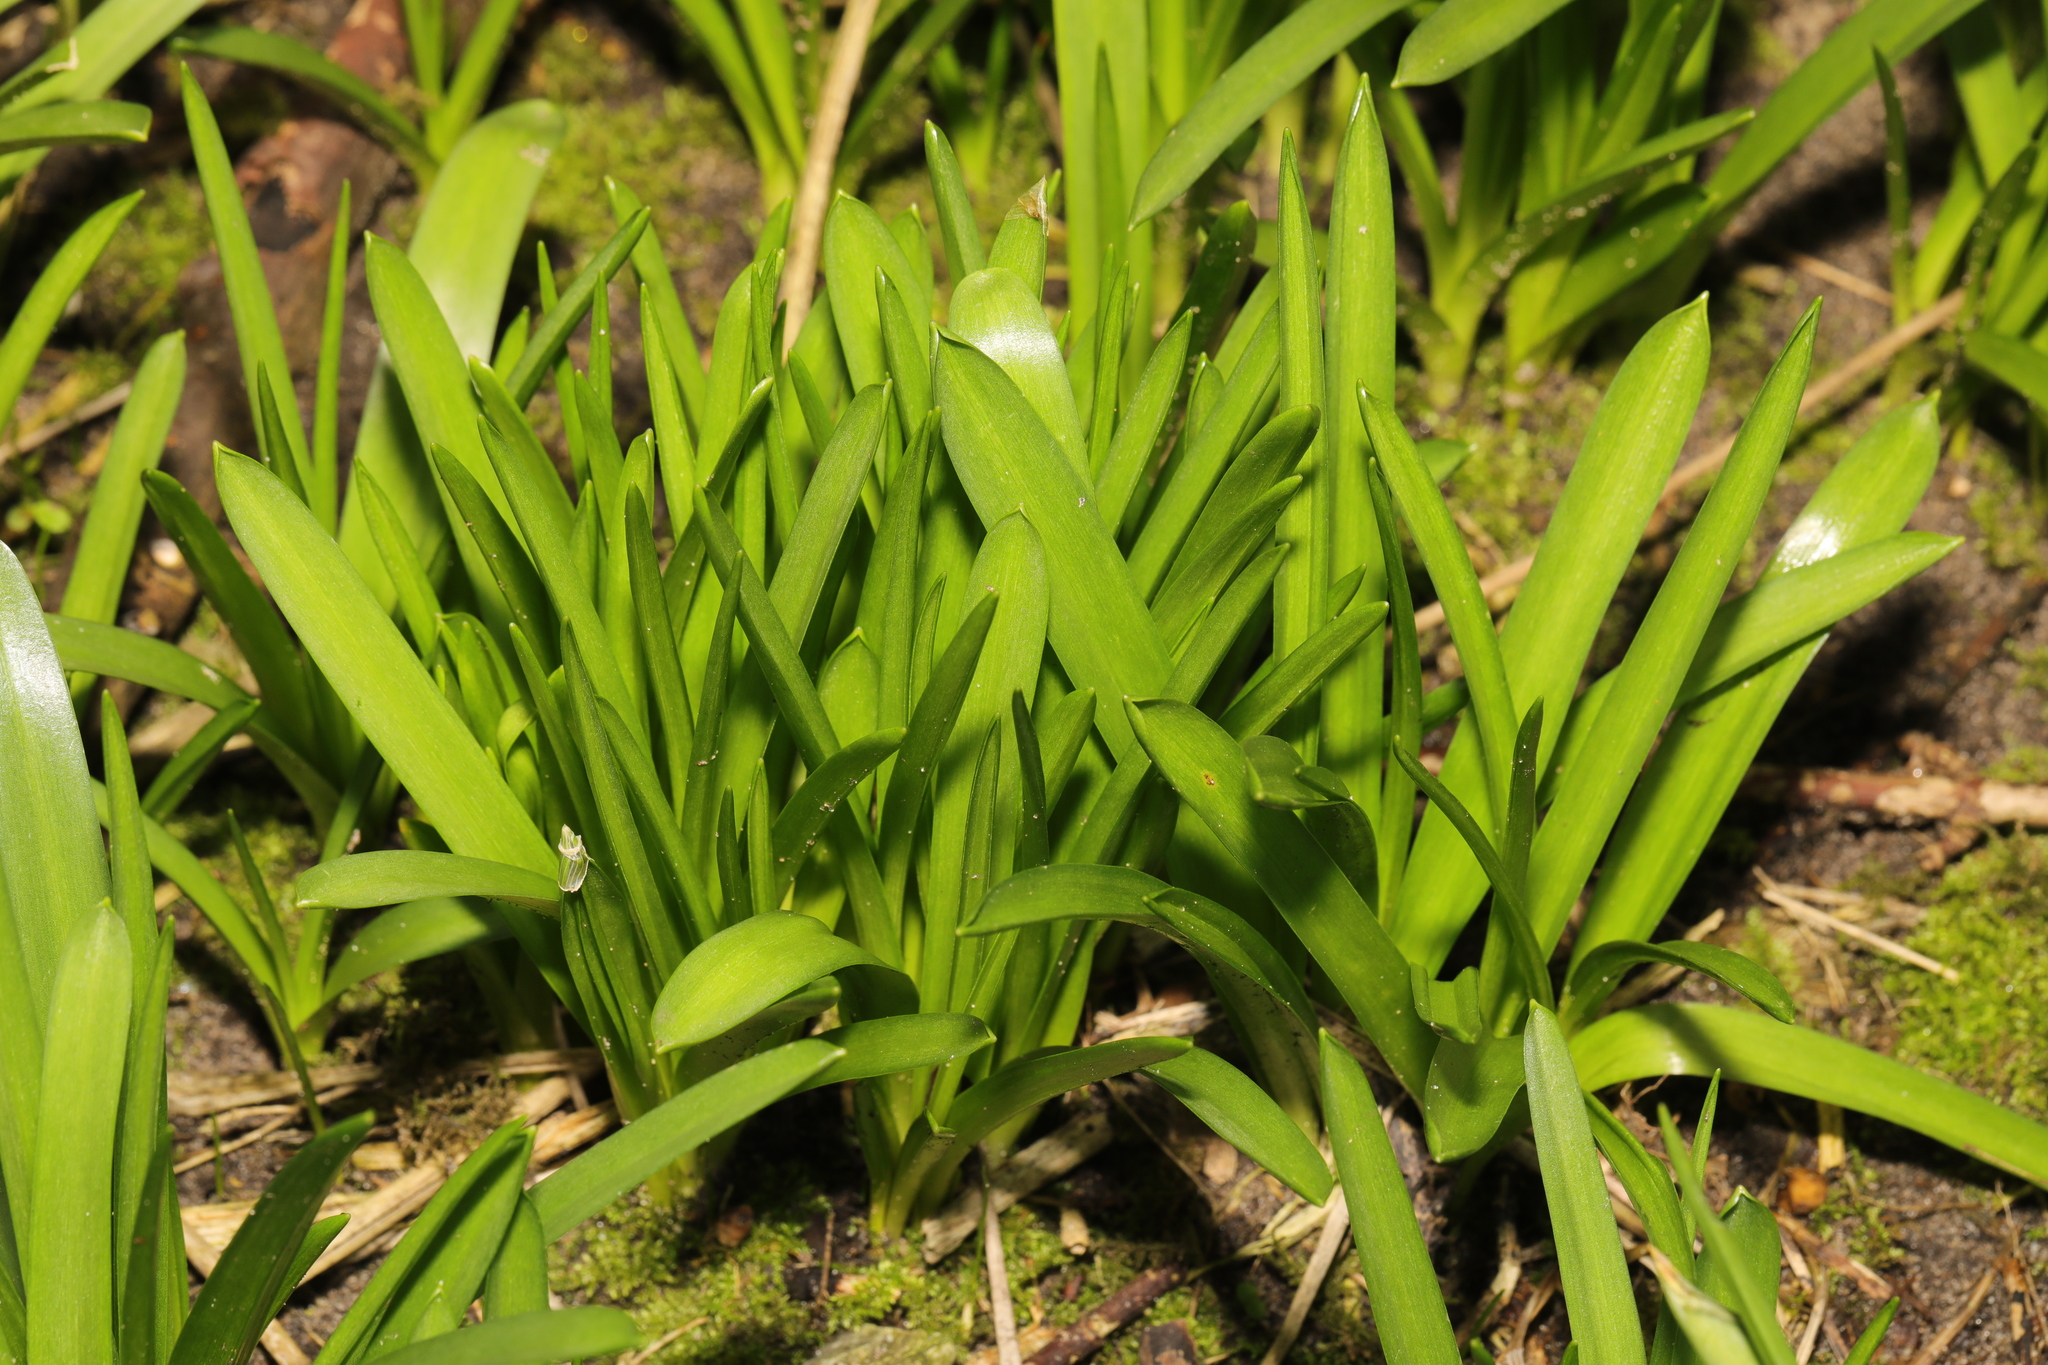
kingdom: Plantae
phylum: Tracheophyta
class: Liliopsida
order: Asparagales
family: Asparagaceae
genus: Hyacinthoides
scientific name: Hyacinthoides massartiana
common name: Hyacinthoides
